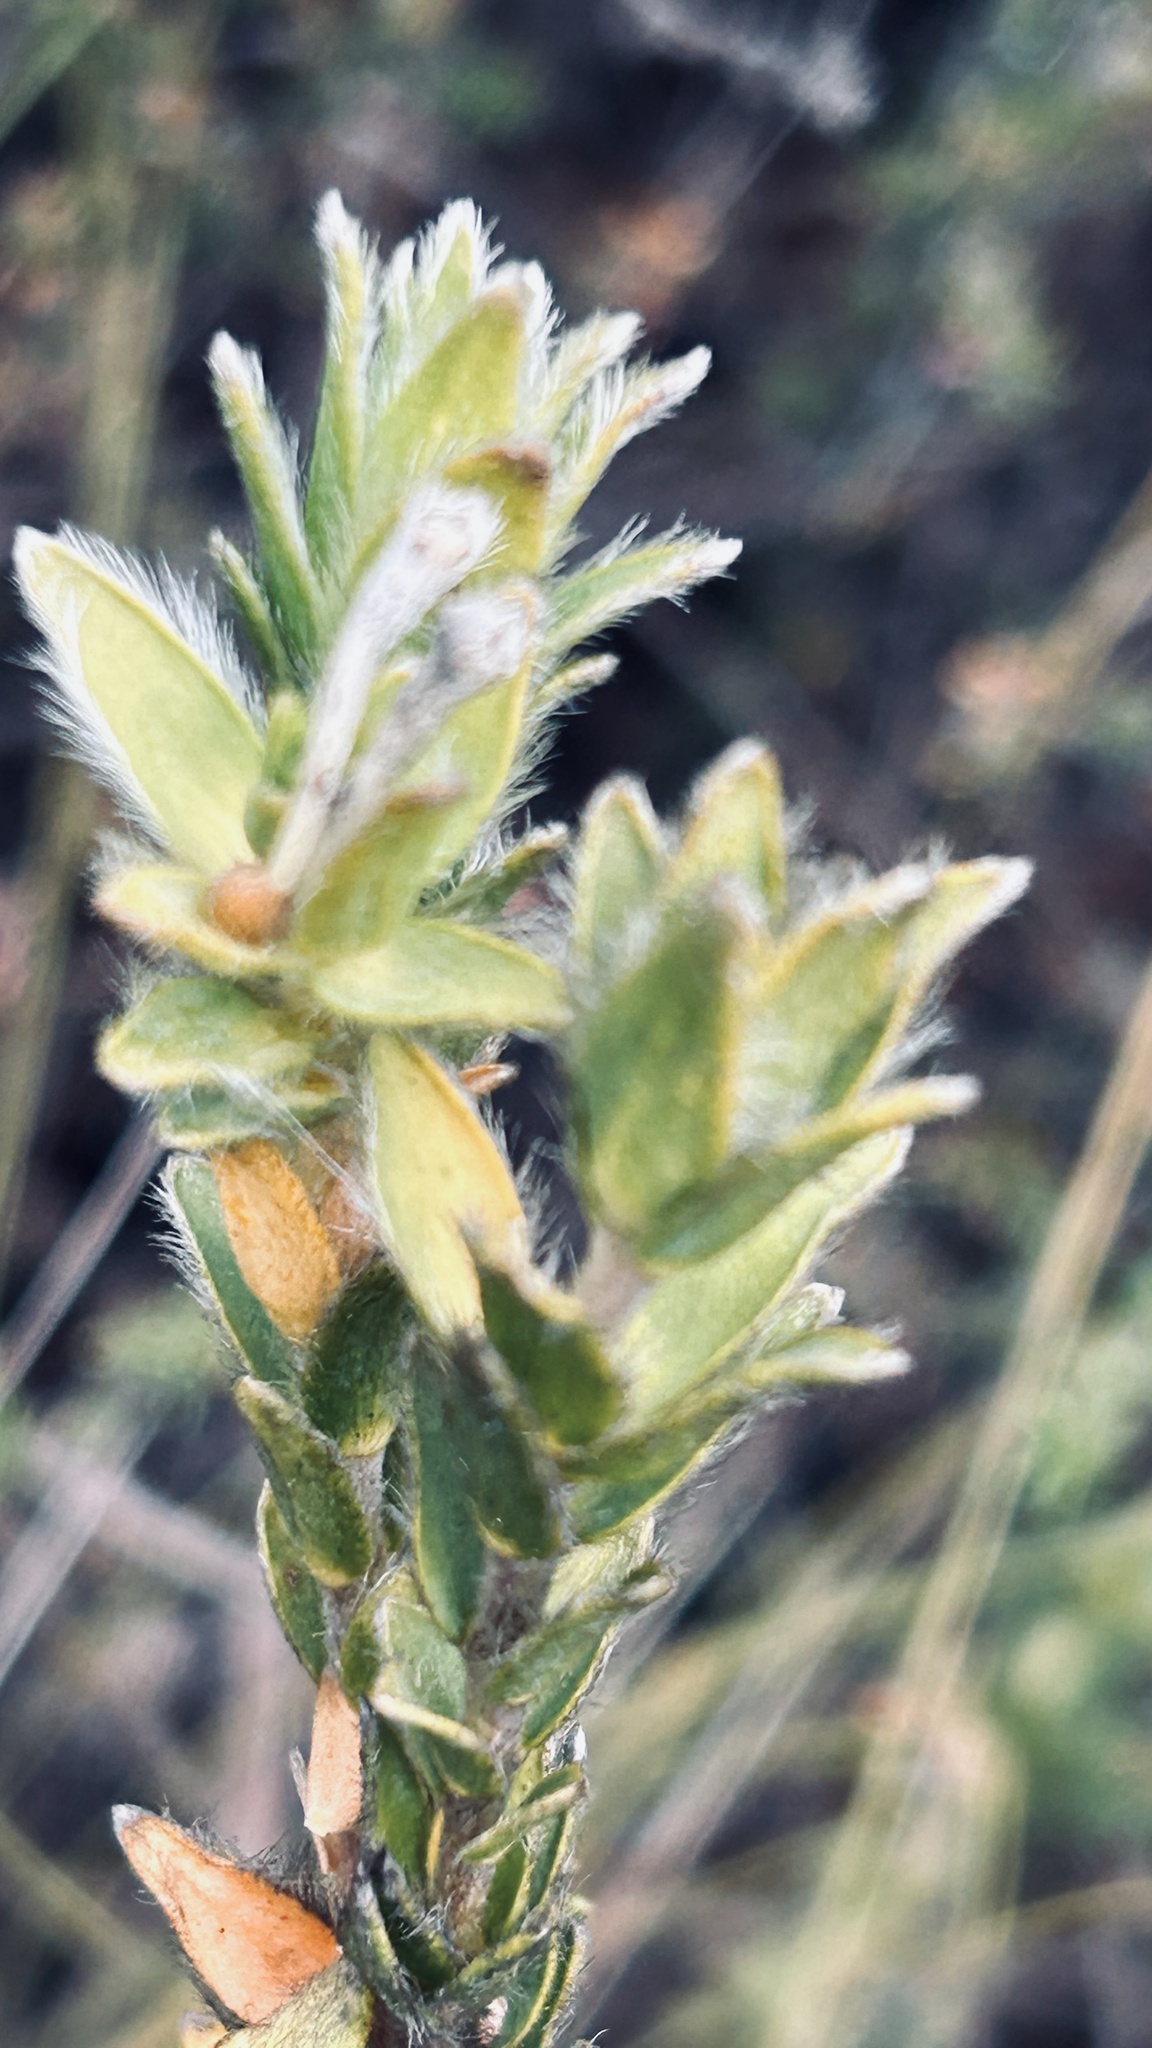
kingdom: Plantae
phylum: Tracheophyta
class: Magnoliopsida
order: Malvales
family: Thymelaeaceae
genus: Gnidia
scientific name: Gnidia nodiflora
